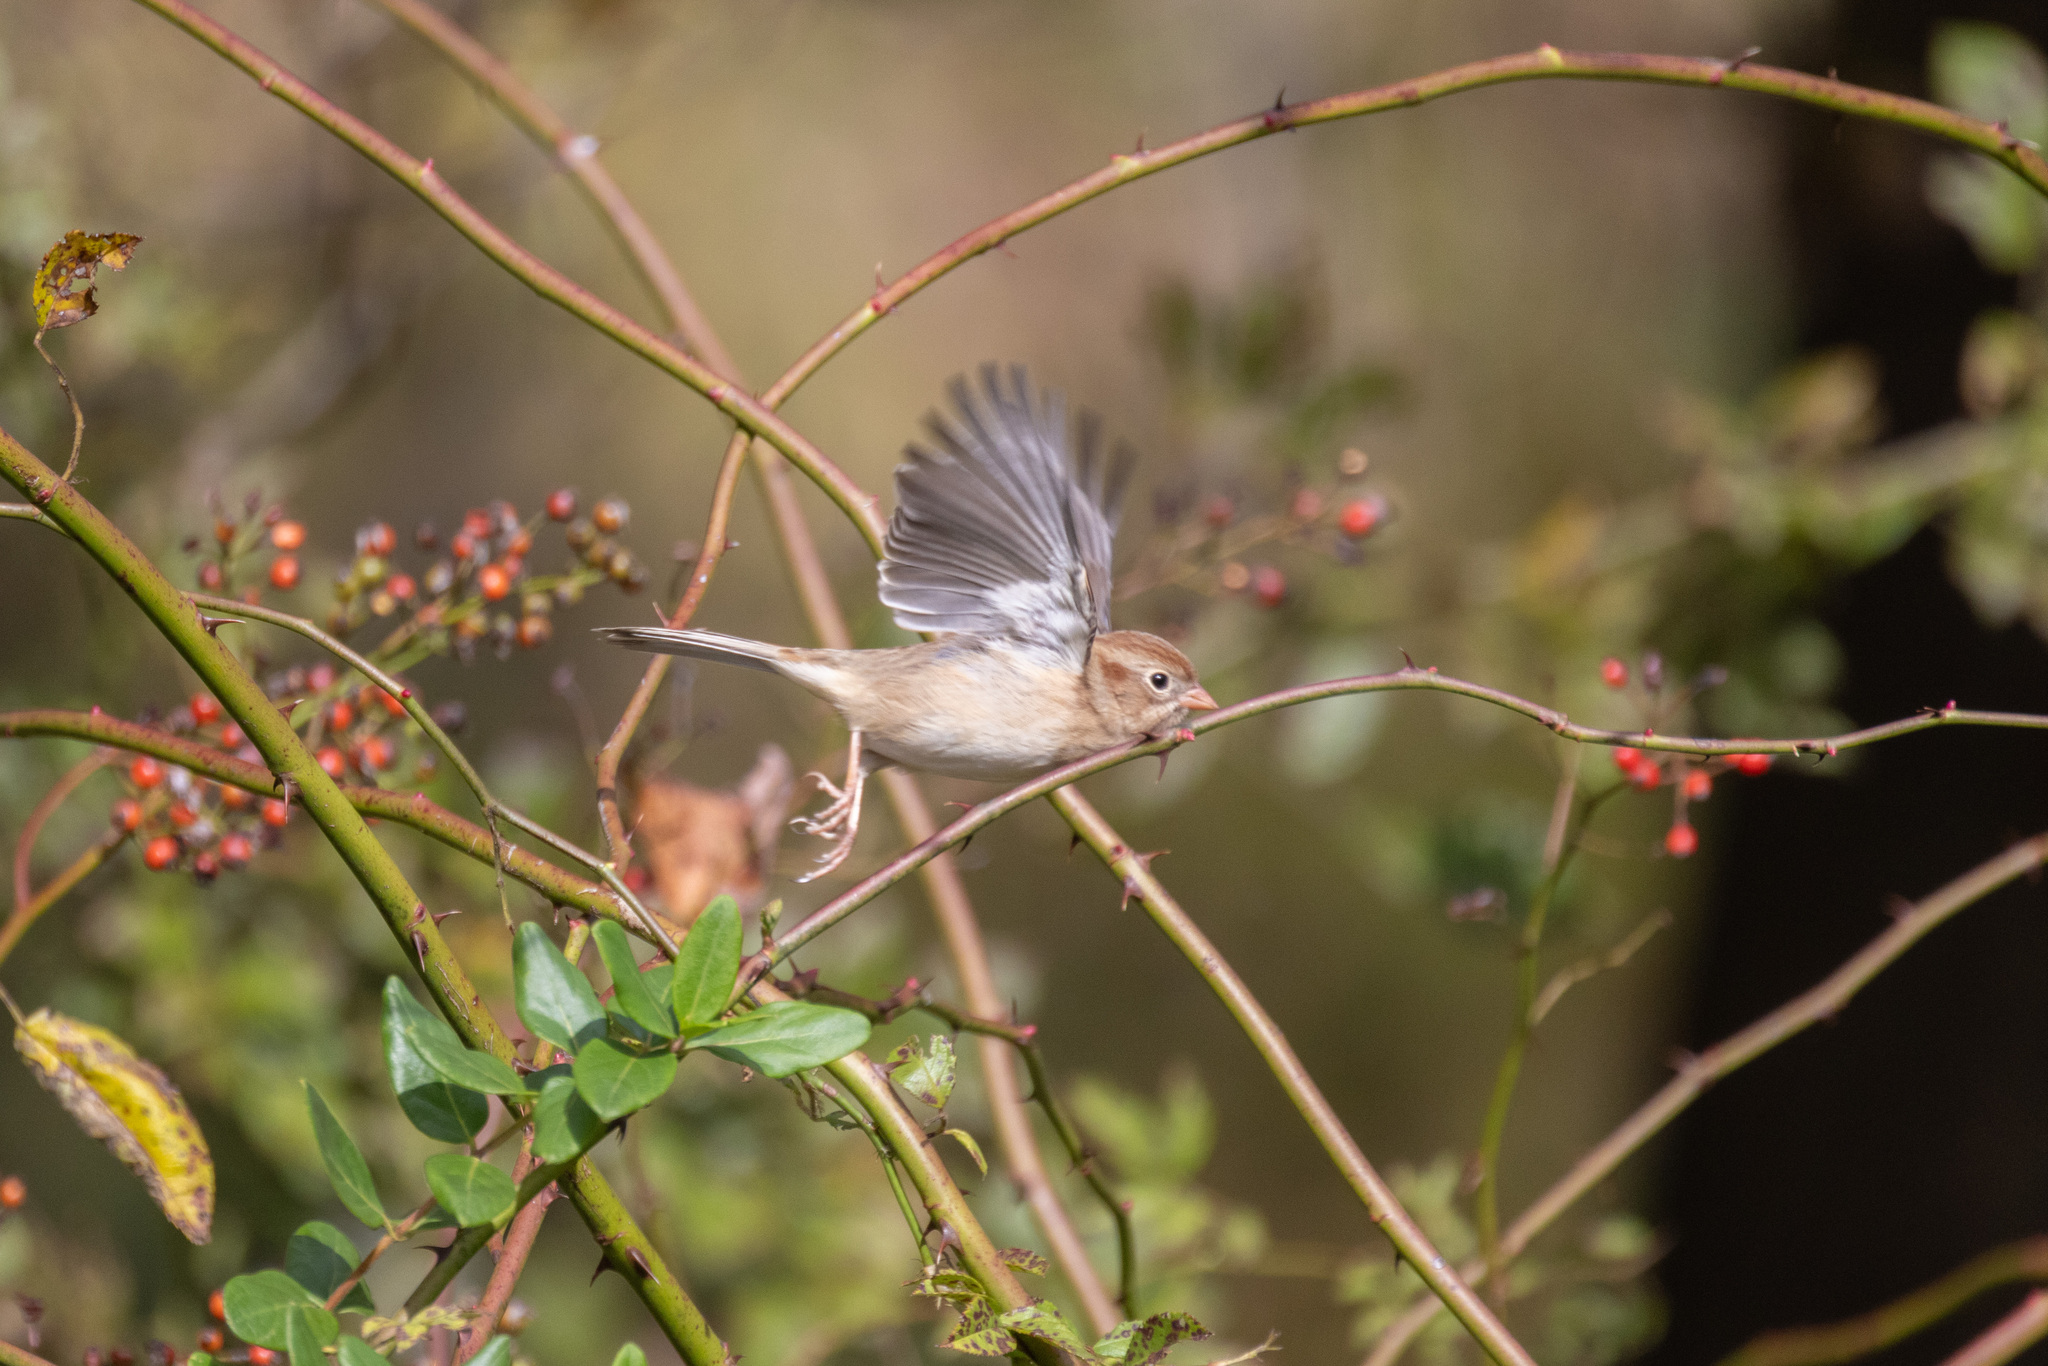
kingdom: Animalia
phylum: Chordata
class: Aves
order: Passeriformes
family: Passerellidae
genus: Spizella
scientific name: Spizella pusilla
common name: Field sparrow
